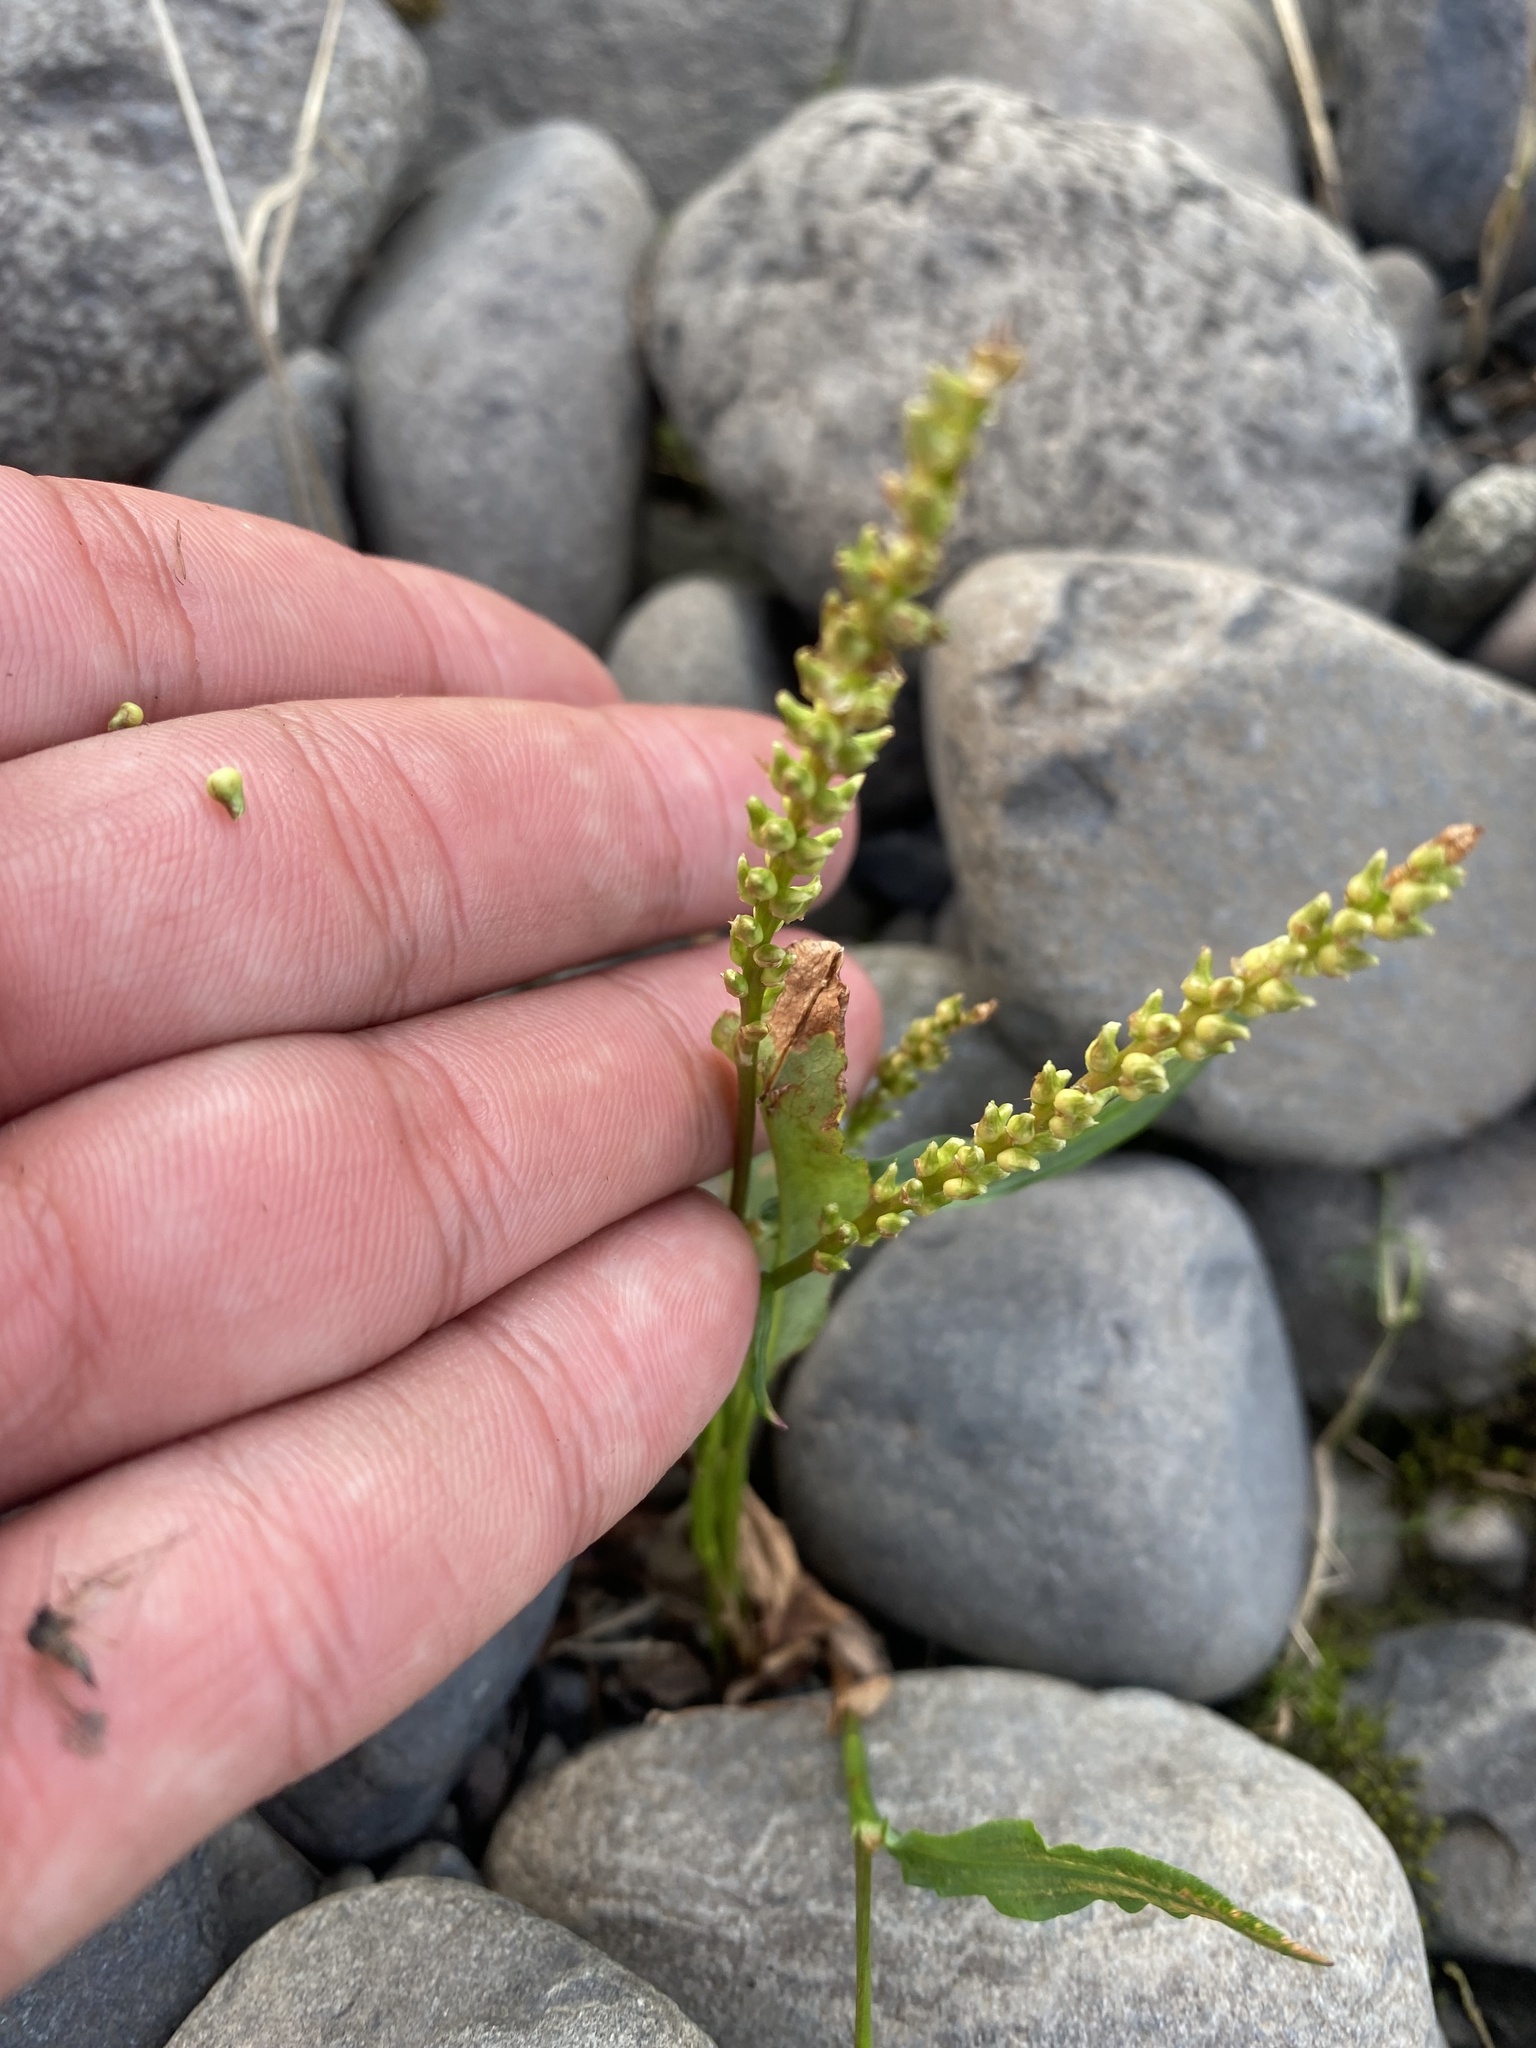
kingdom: Plantae
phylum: Tracheophyta
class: Magnoliopsida
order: Caryophyllales
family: Polygonaceae
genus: Bistorta
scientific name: Bistorta vivipara
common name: Alpine bistort
